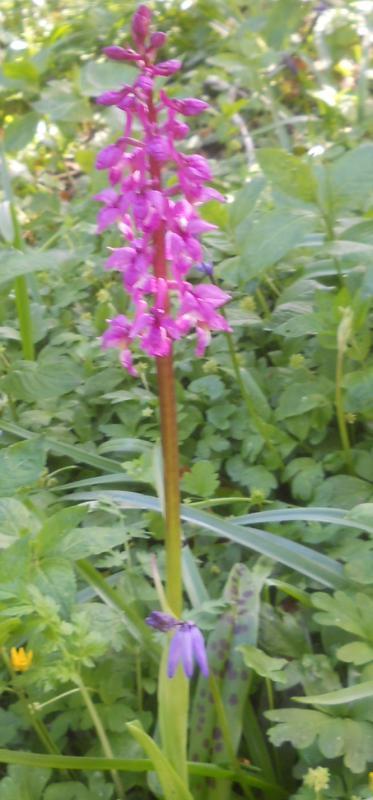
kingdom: Plantae
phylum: Tracheophyta
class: Liliopsida
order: Asparagales
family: Orchidaceae
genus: Orchis
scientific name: Orchis mascula
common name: Early-purple orchid
